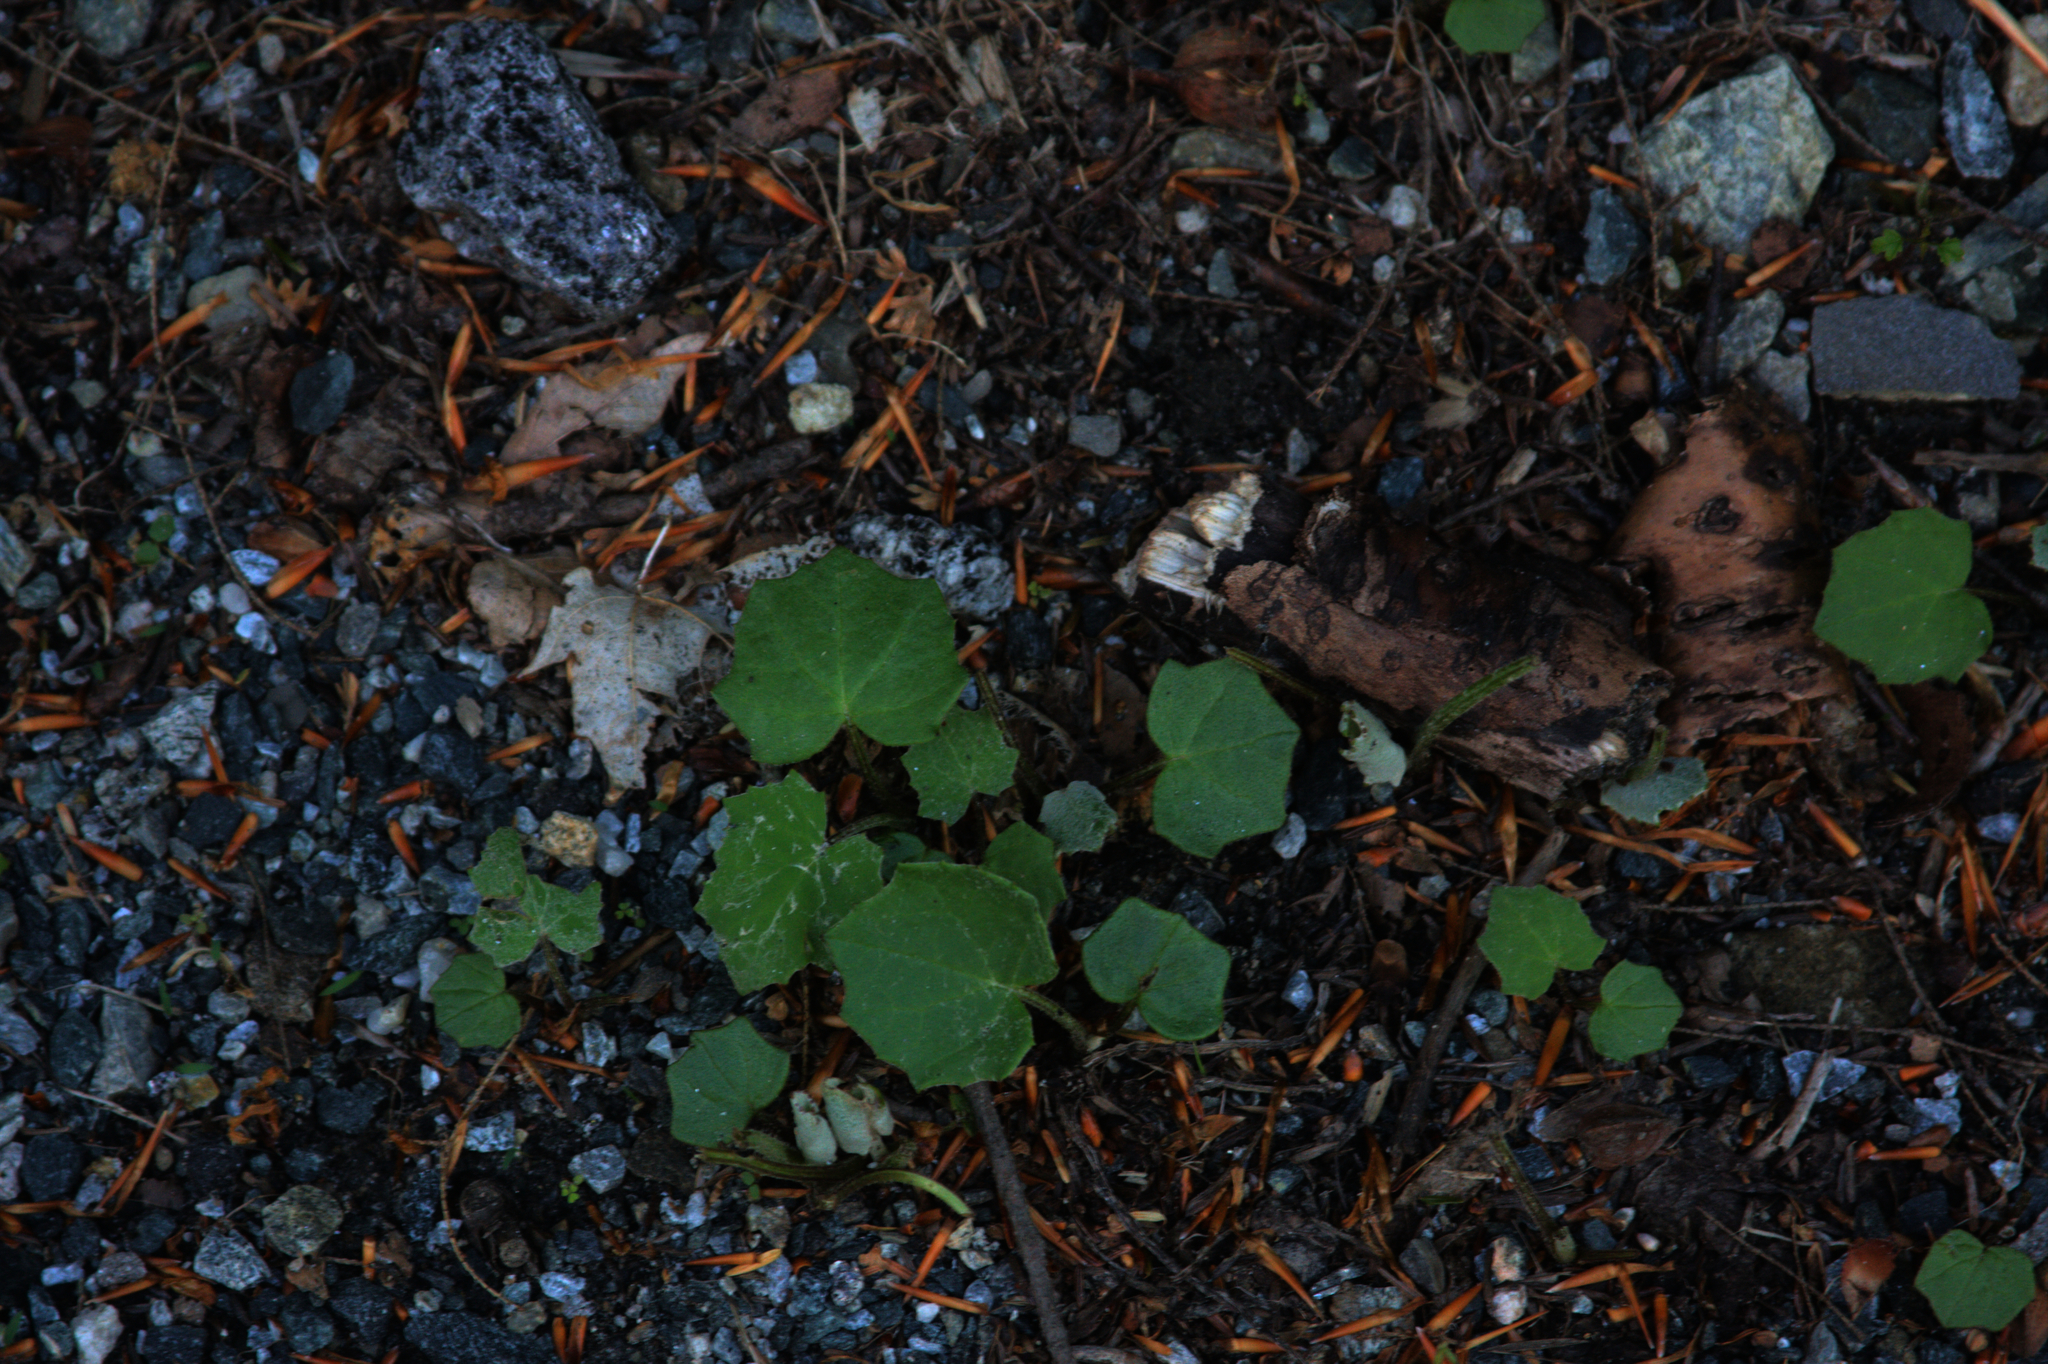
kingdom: Plantae
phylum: Tracheophyta
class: Magnoliopsida
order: Asterales
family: Asteraceae
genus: Tussilago
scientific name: Tussilago farfara
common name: Coltsfoot
